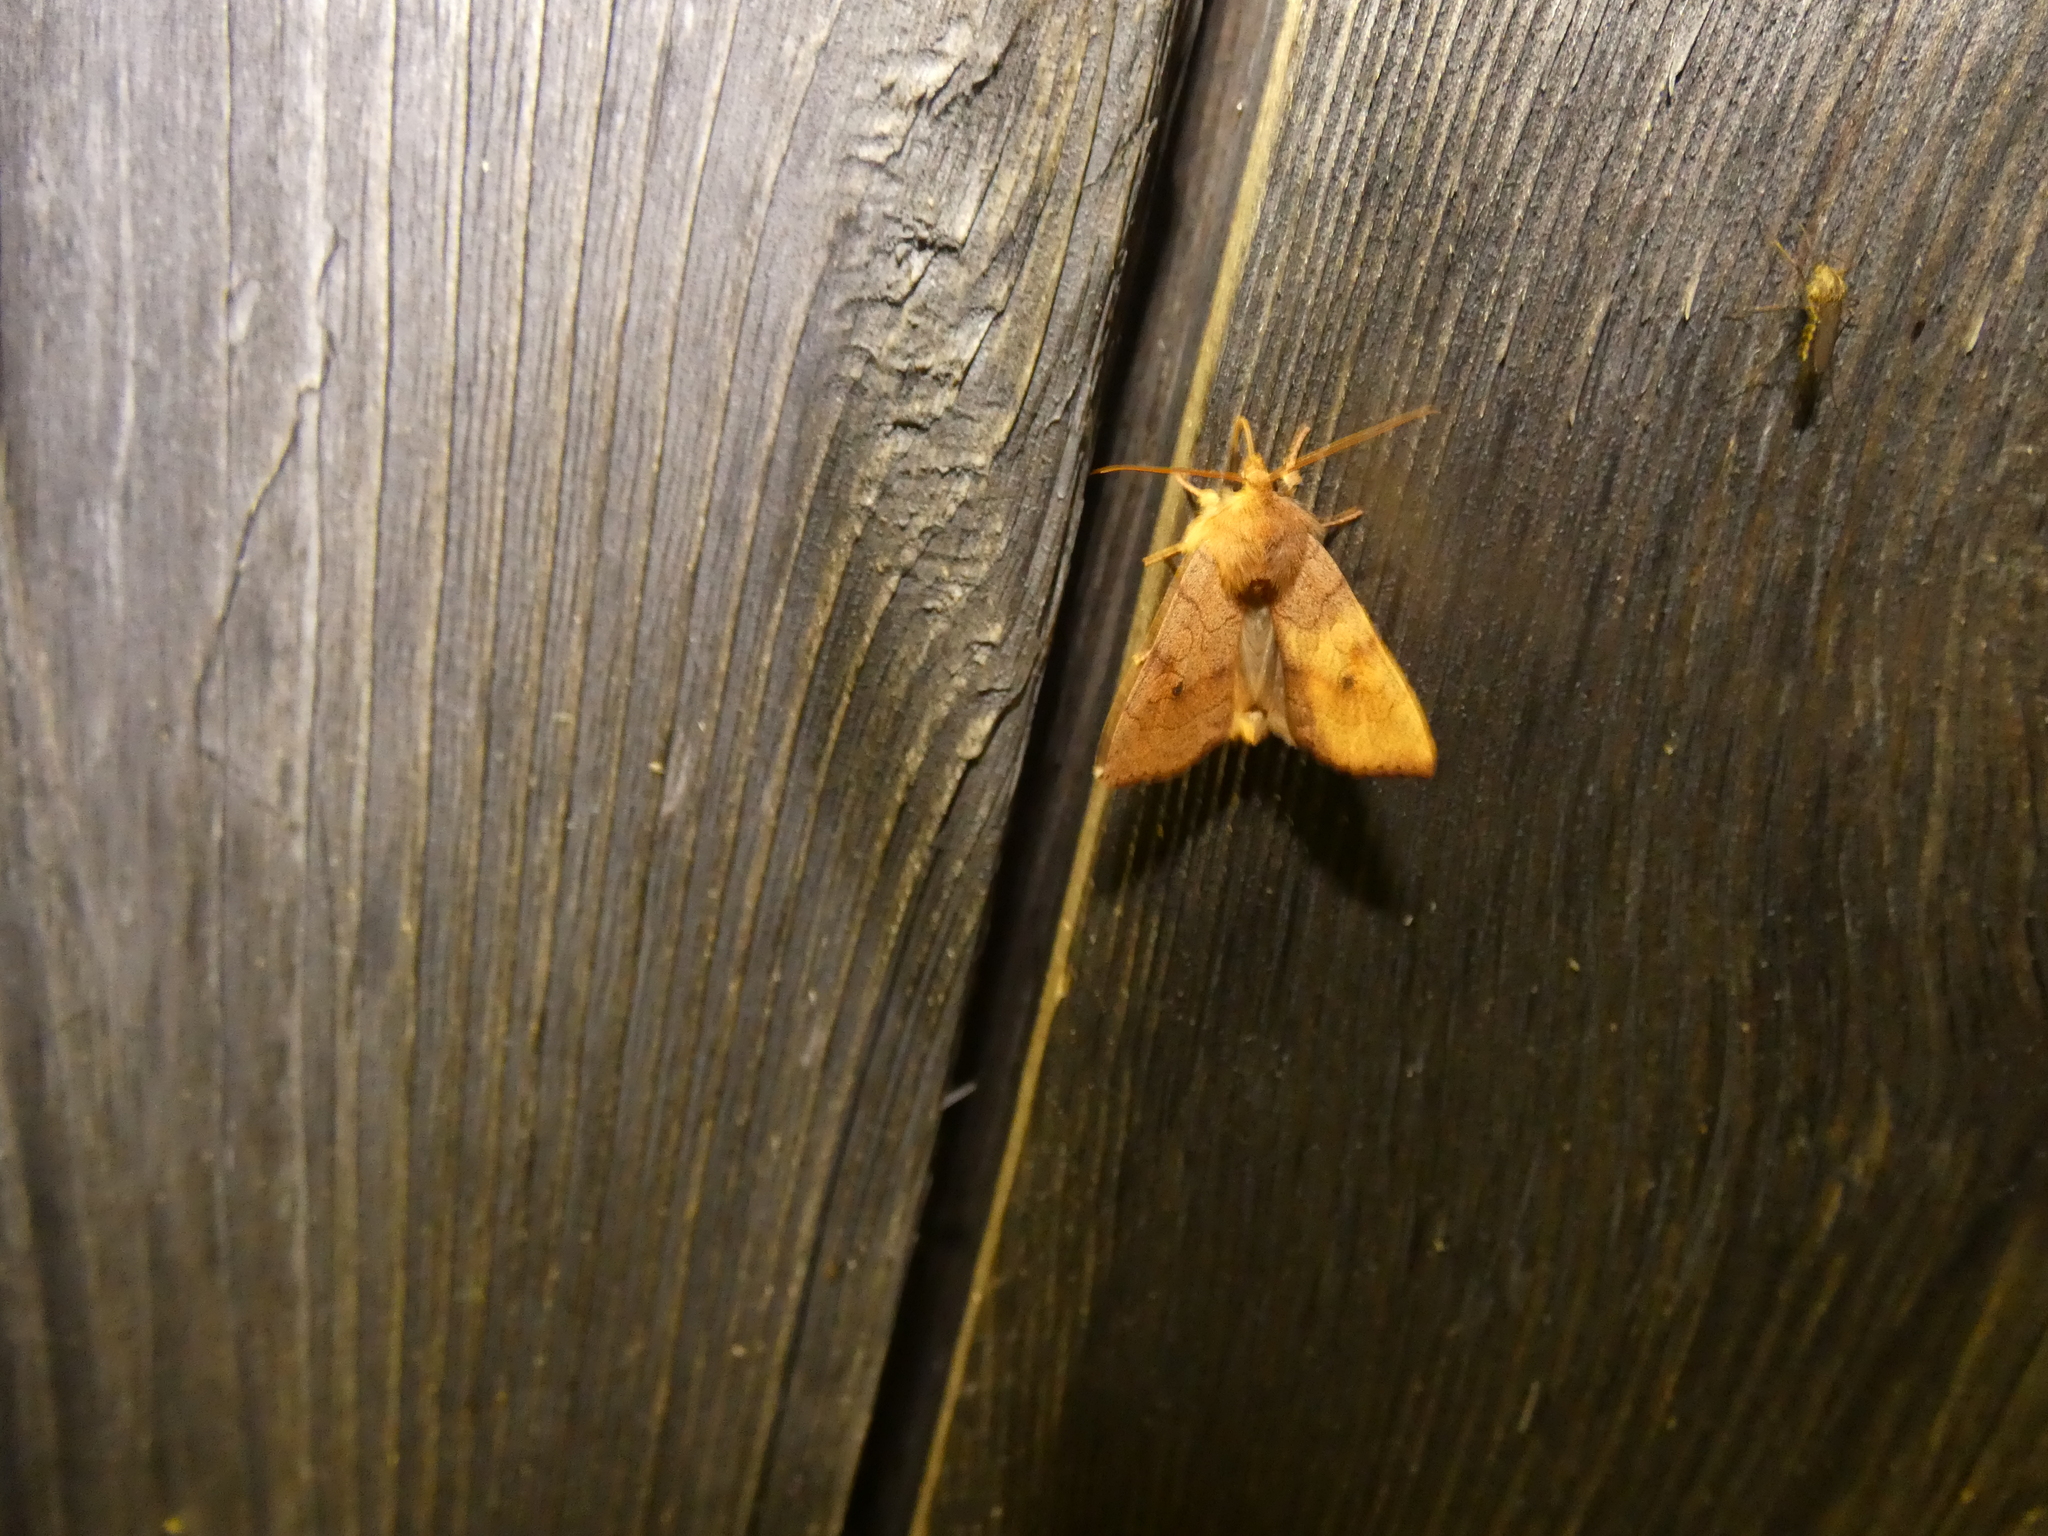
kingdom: Animalia
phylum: Arthropoda
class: Insecta
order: Lepidoptera
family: Noctuidae
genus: Enargia
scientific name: Enargia paleacea
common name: Angle-striped sallow
